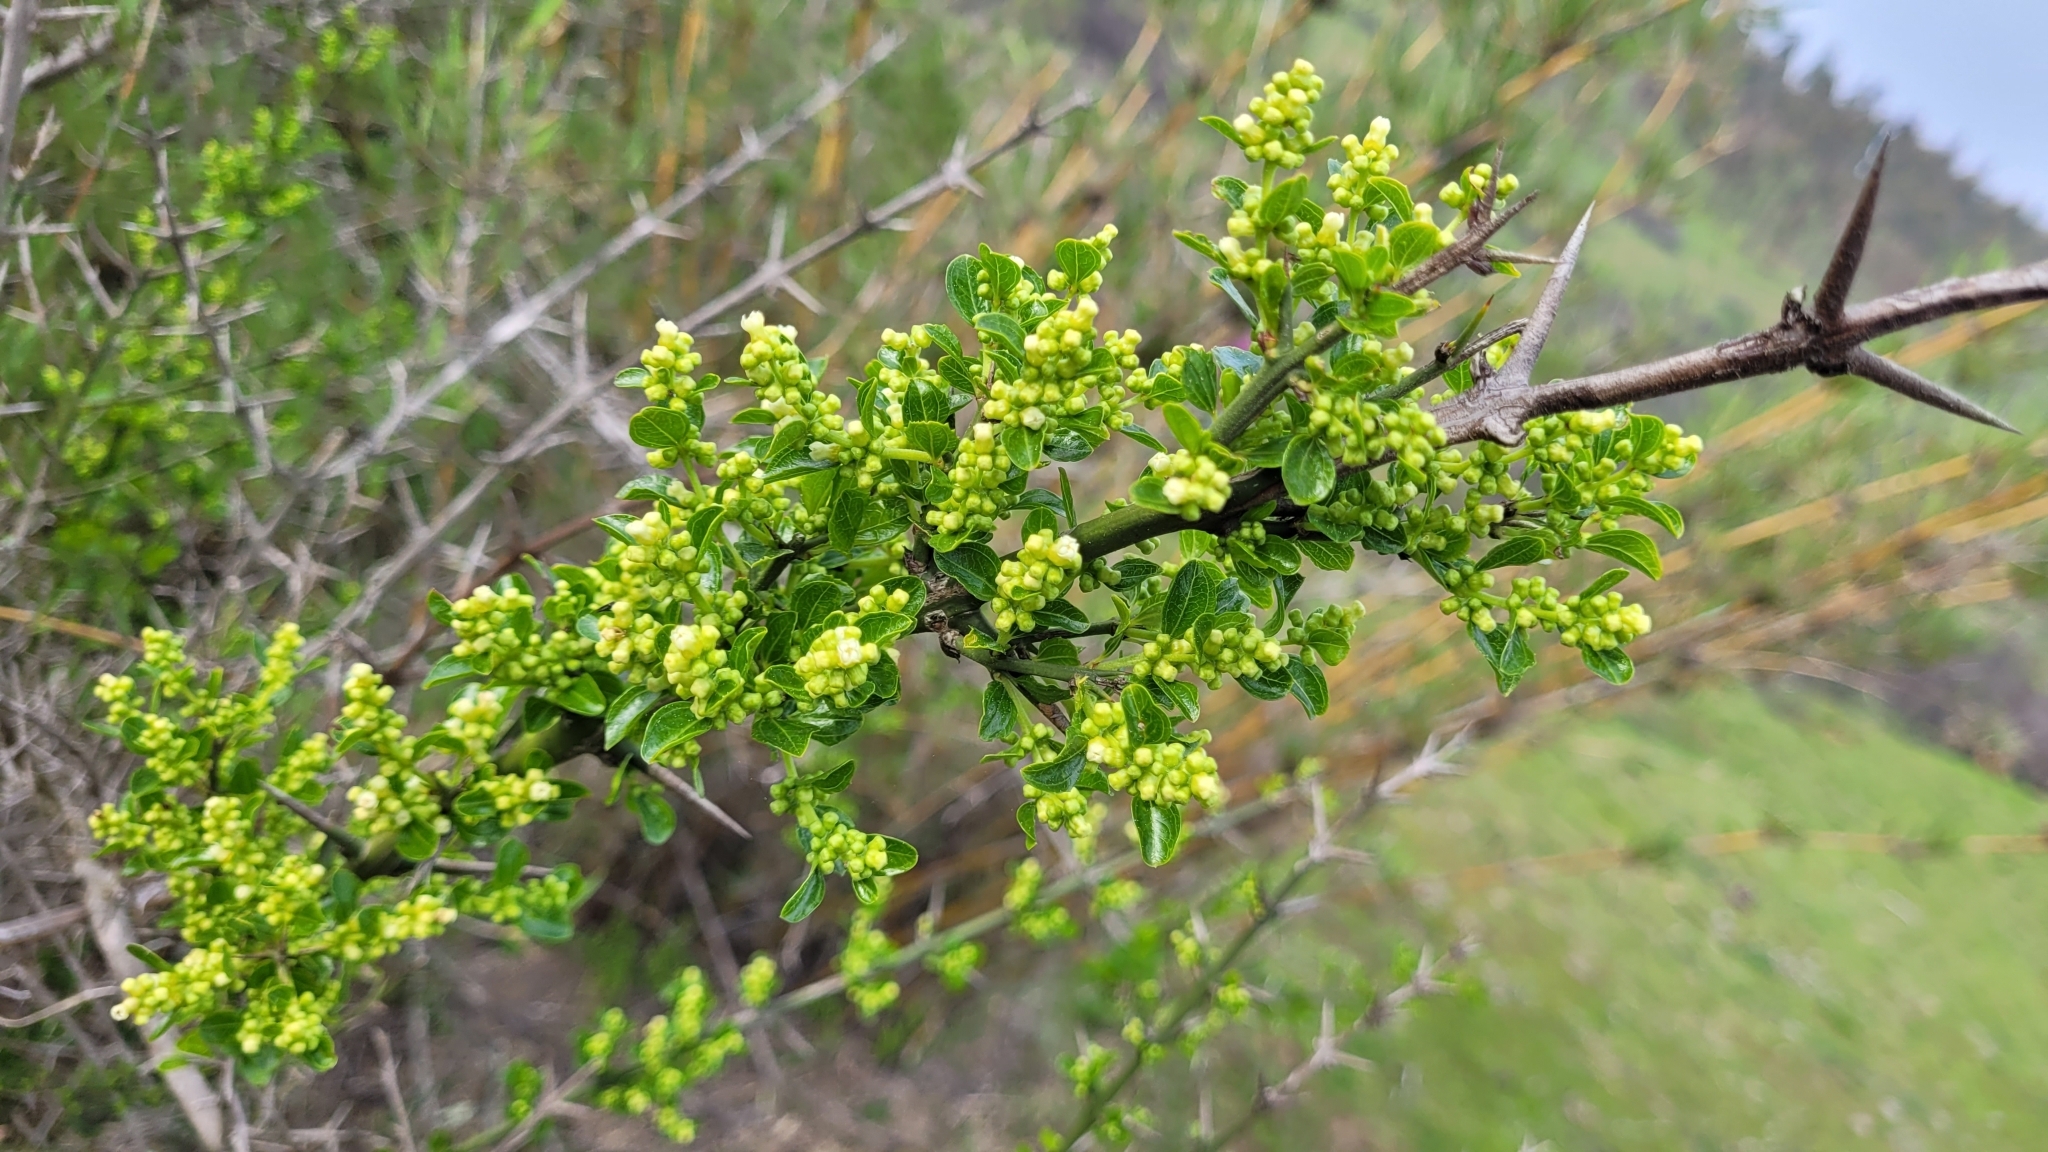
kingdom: Plantae
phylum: Tracheophyta
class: Magnoliopsida
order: Rosales
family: Rhamnaceae
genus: Retanilla
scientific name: Retanilla trinervia
